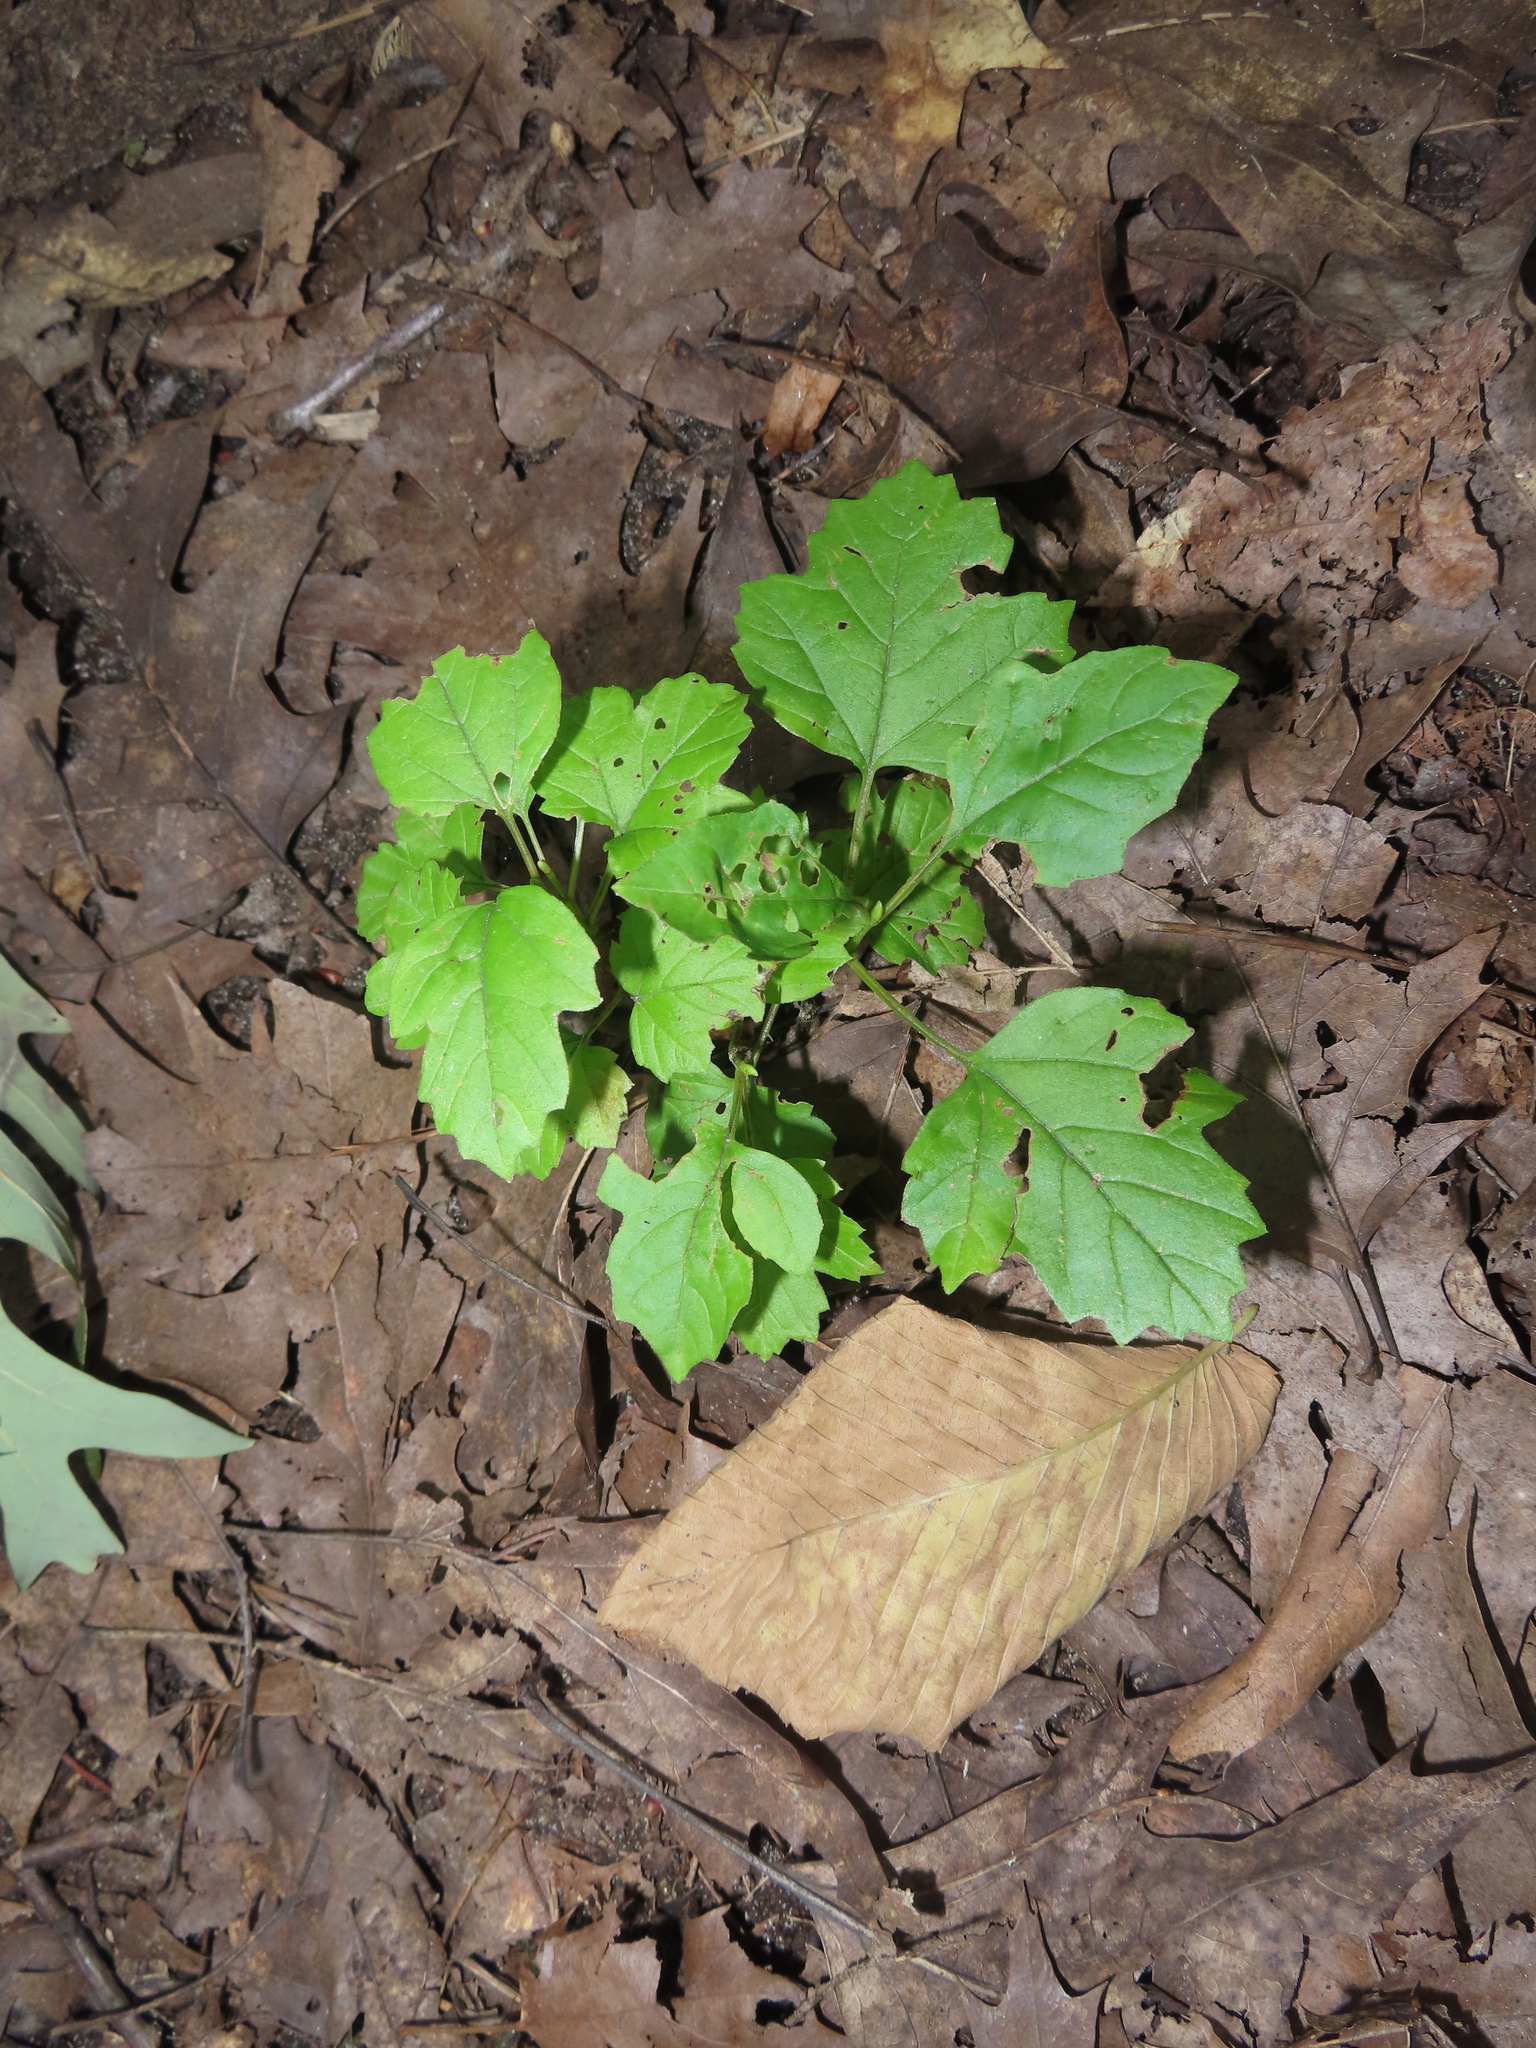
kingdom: Plantae
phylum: Tracheophyta
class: Magnoliopsida
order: Dipsacales
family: Viburnaceae
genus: Viburnum
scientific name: Viburnum opulus
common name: Guelder-rose
